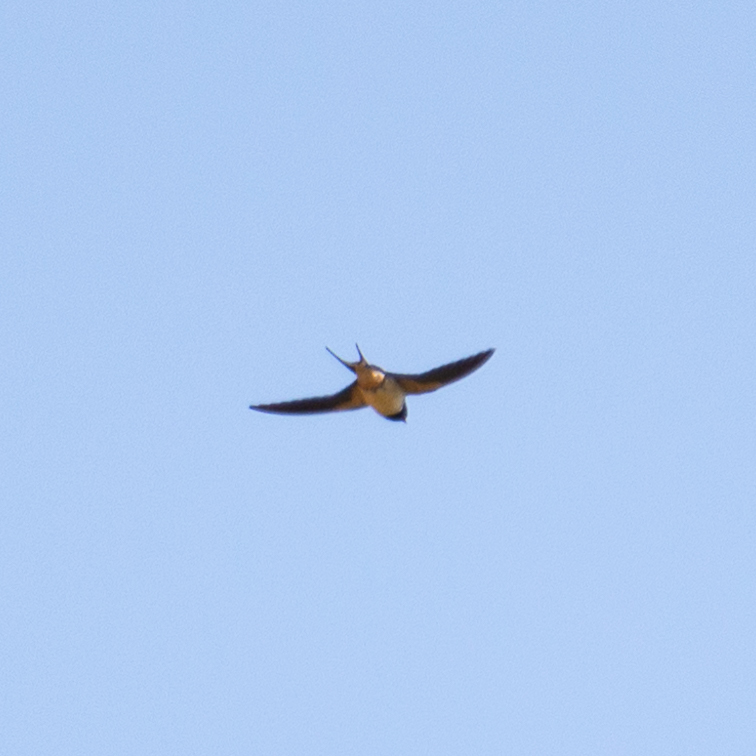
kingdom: Animalia
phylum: Chordata
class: Aves
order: Passeriformes
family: Hirundinidae
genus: Hirundo
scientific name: Hirundo rustica
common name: Barn swallow
